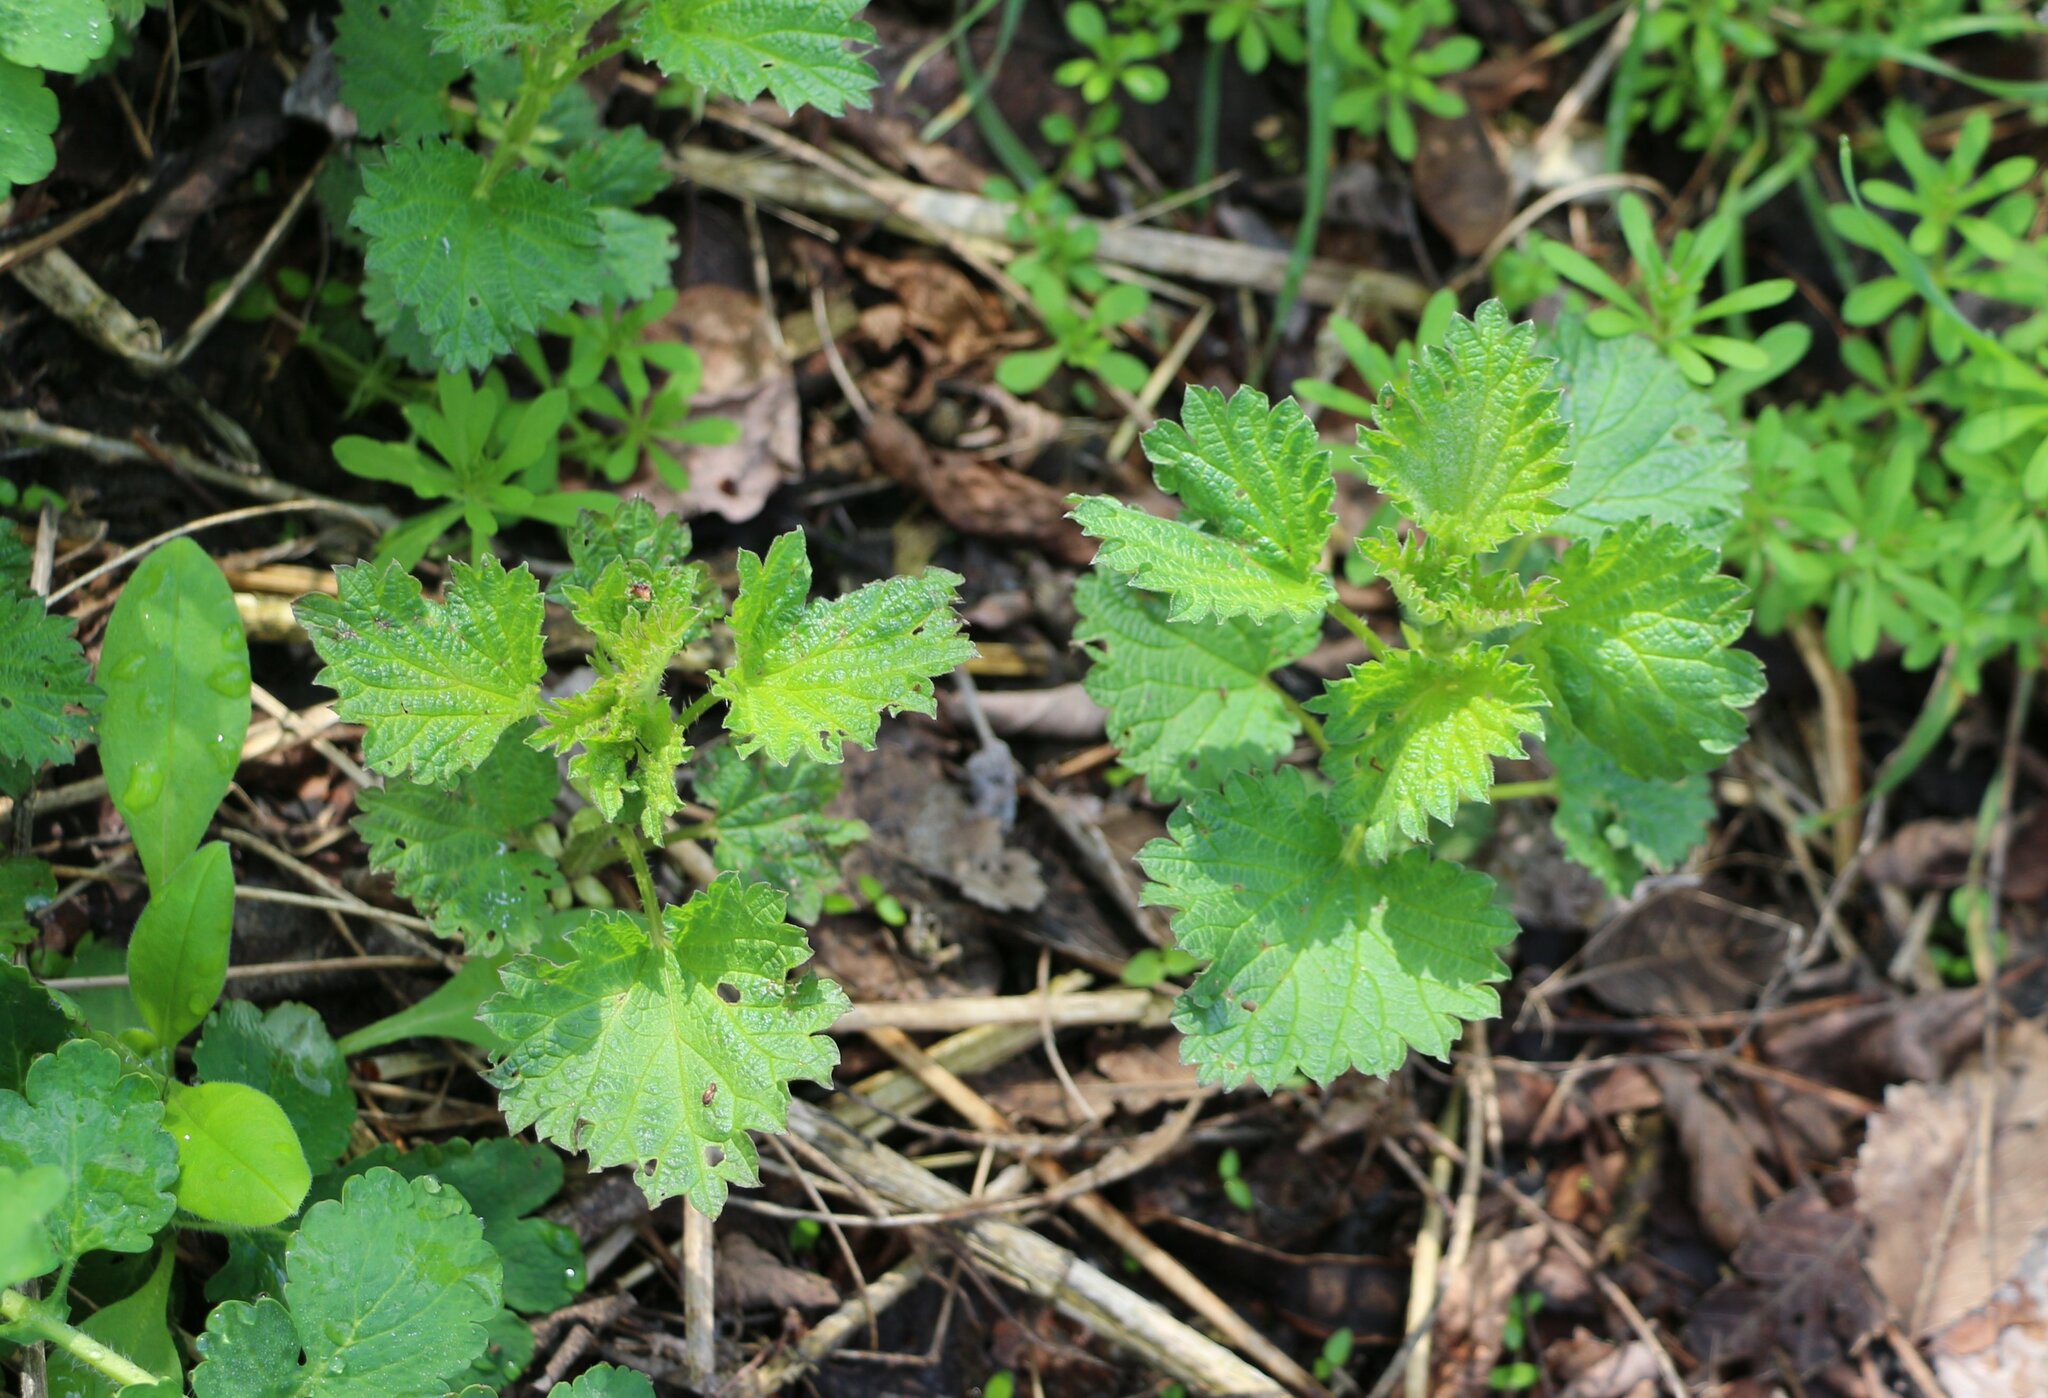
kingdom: Plantae
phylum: Tracheophyta
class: Magnoliopsida
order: Rosales
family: Urticaceae
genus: Urtica
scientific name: Urtica dioica
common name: Common nettle
